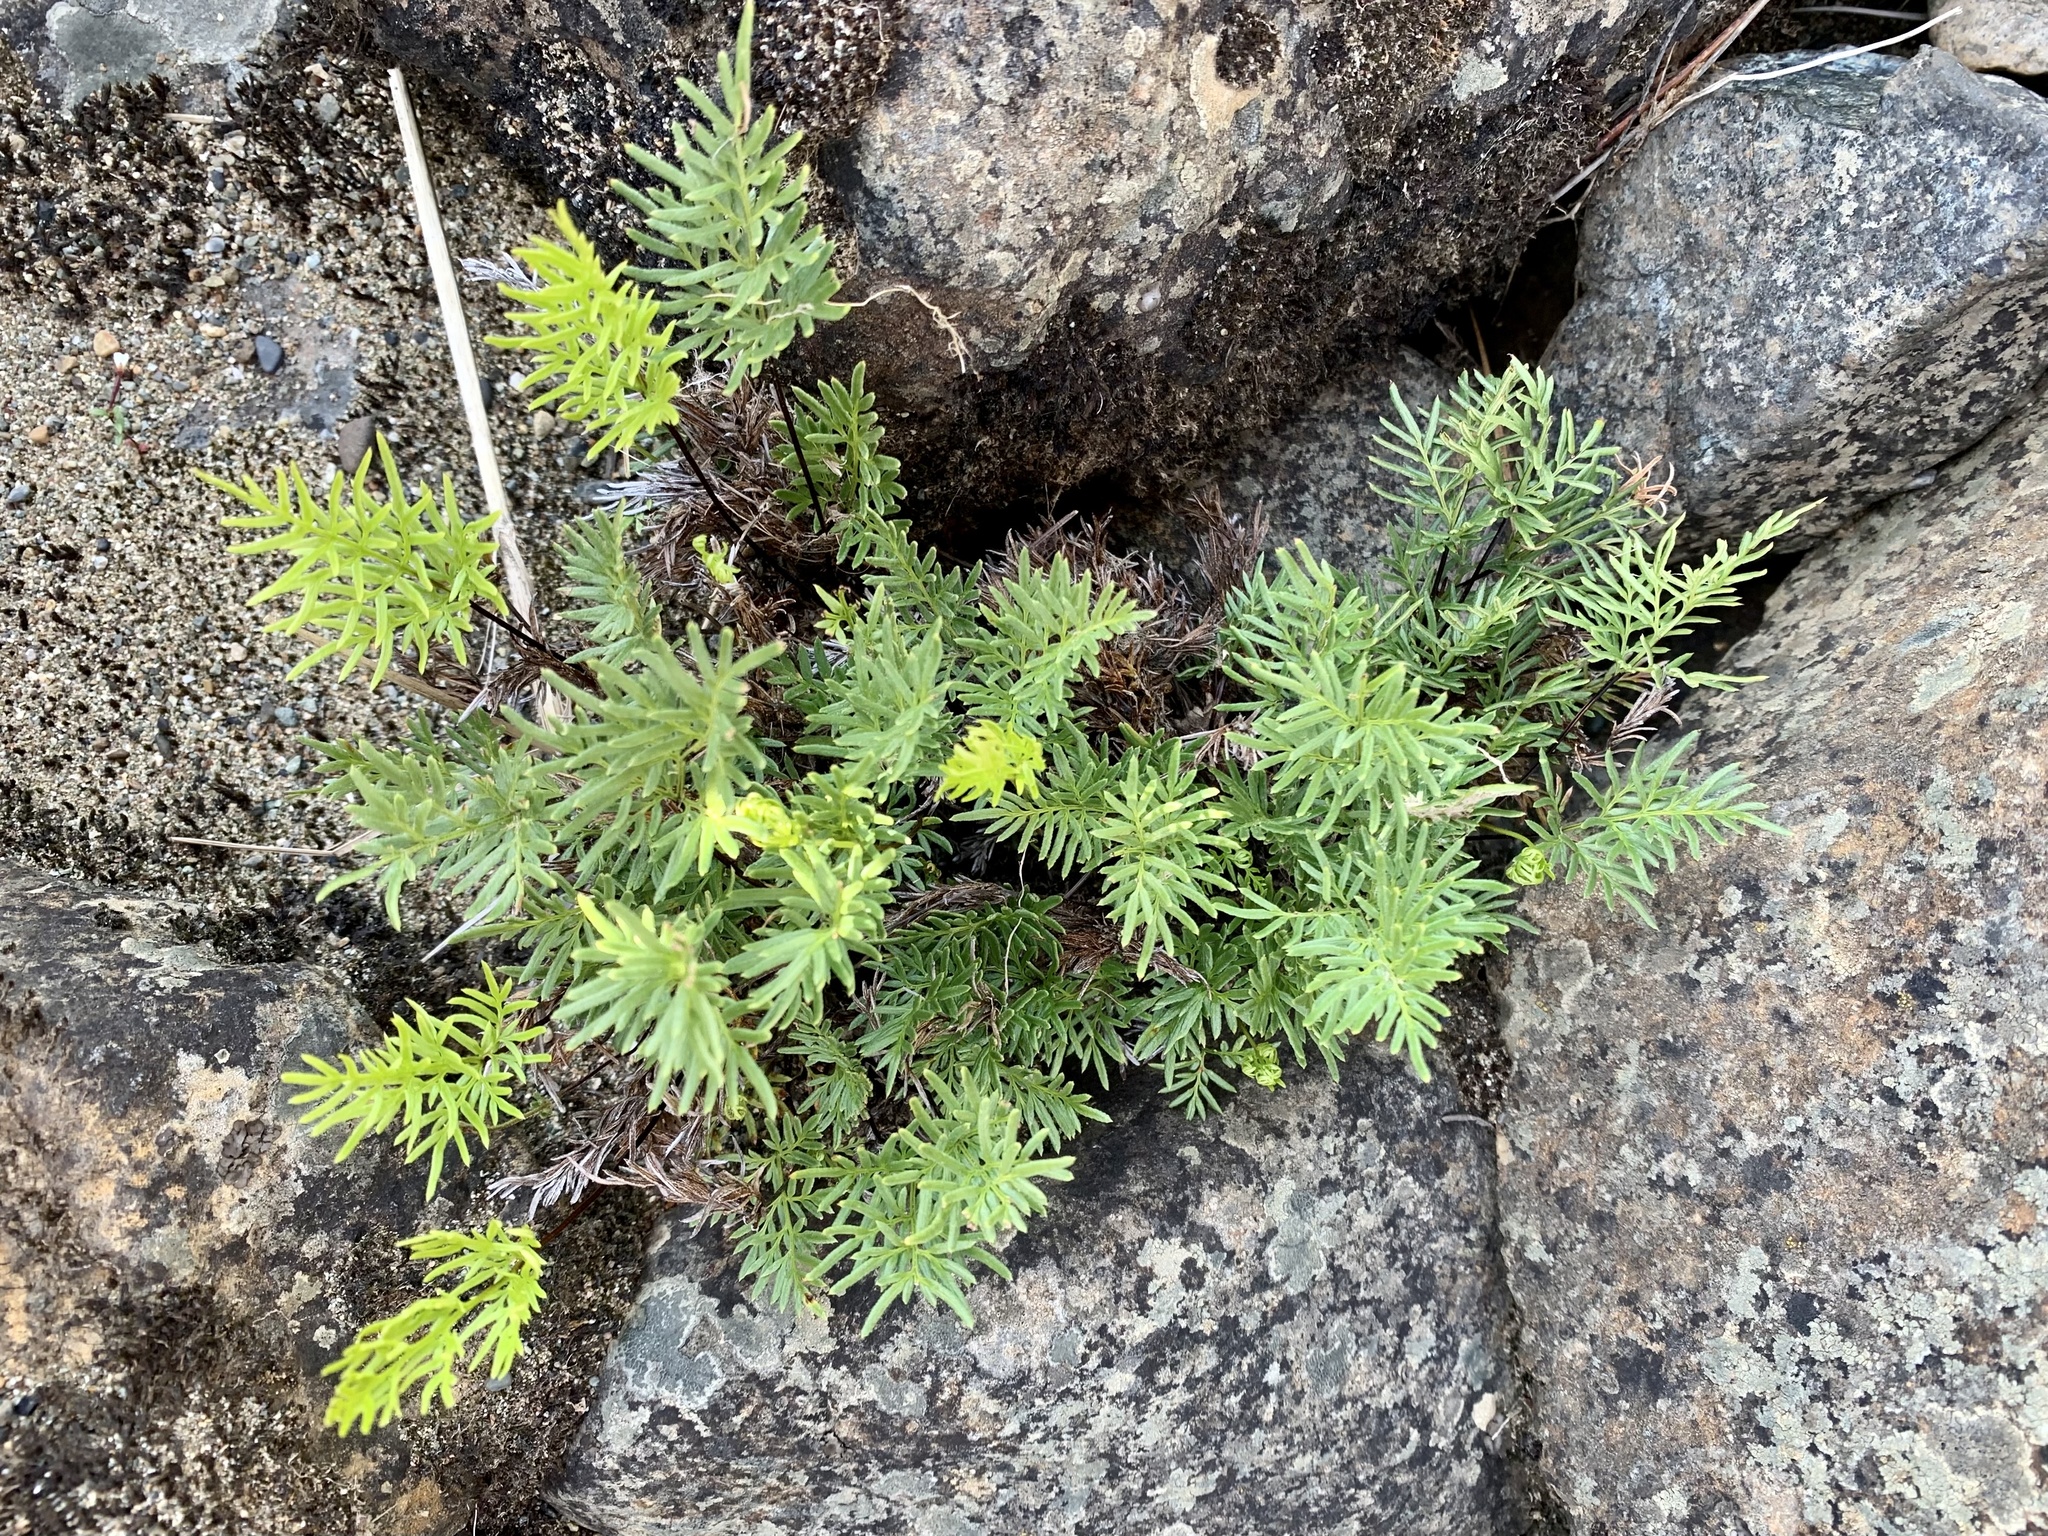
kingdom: Plantae
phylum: Tracheophyta
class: Polypodiopsida
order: Polypodiales
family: Pteridaceae
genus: Aspidotis
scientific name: Aspidotis densa
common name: Indian's dream
